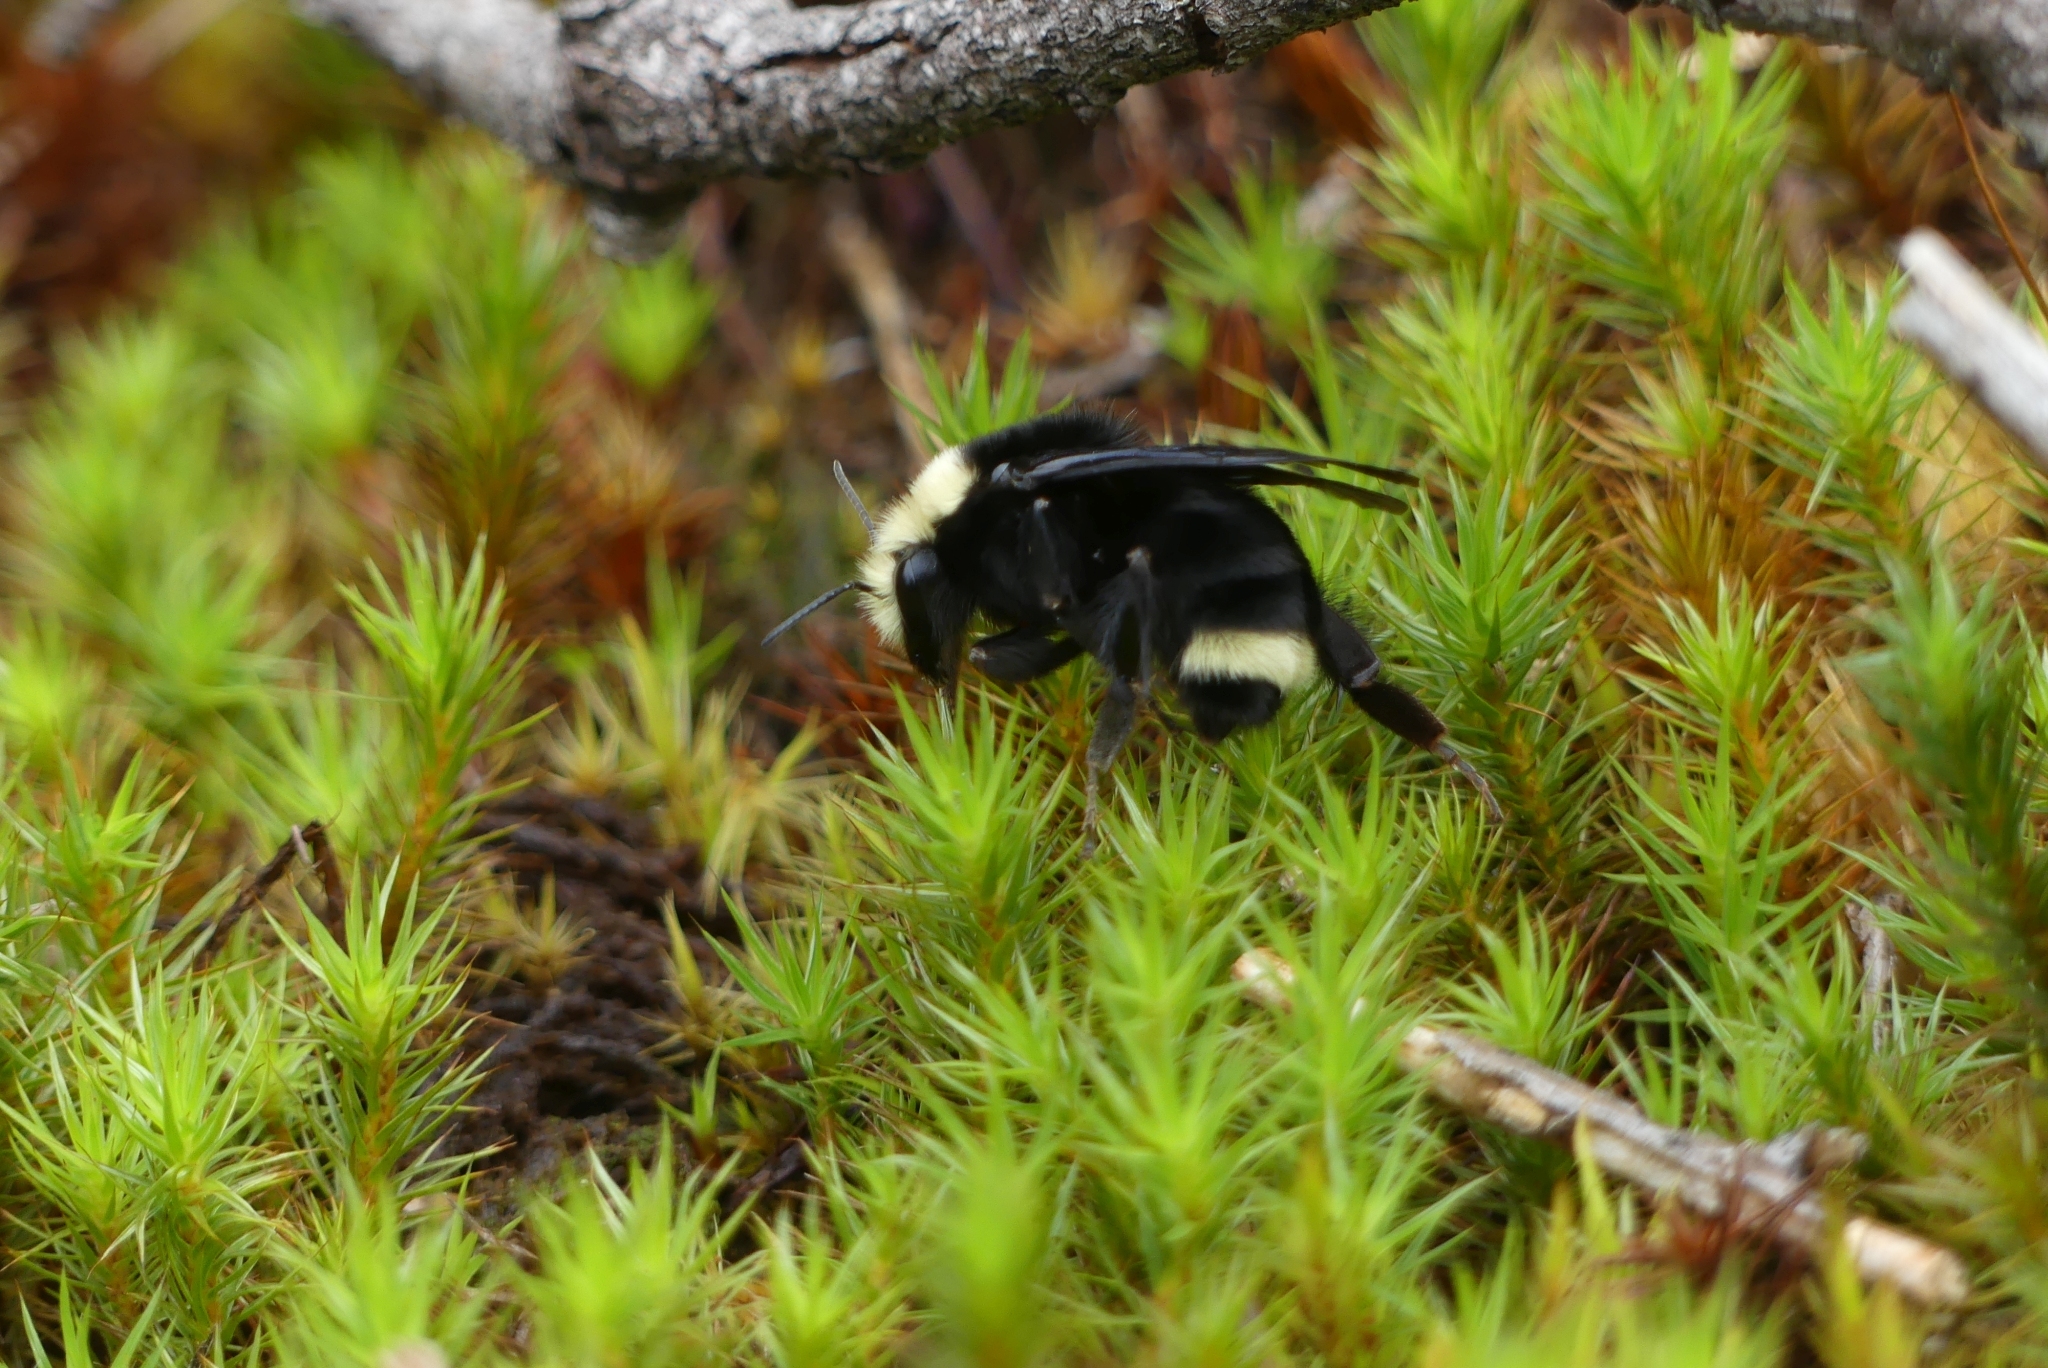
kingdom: Animalia
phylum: Arthropoda
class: Insecta
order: Hymenoptera
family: Apidae
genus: Bombus
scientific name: Bombus vosnesenskii
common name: Vosnesensky bumble bee
